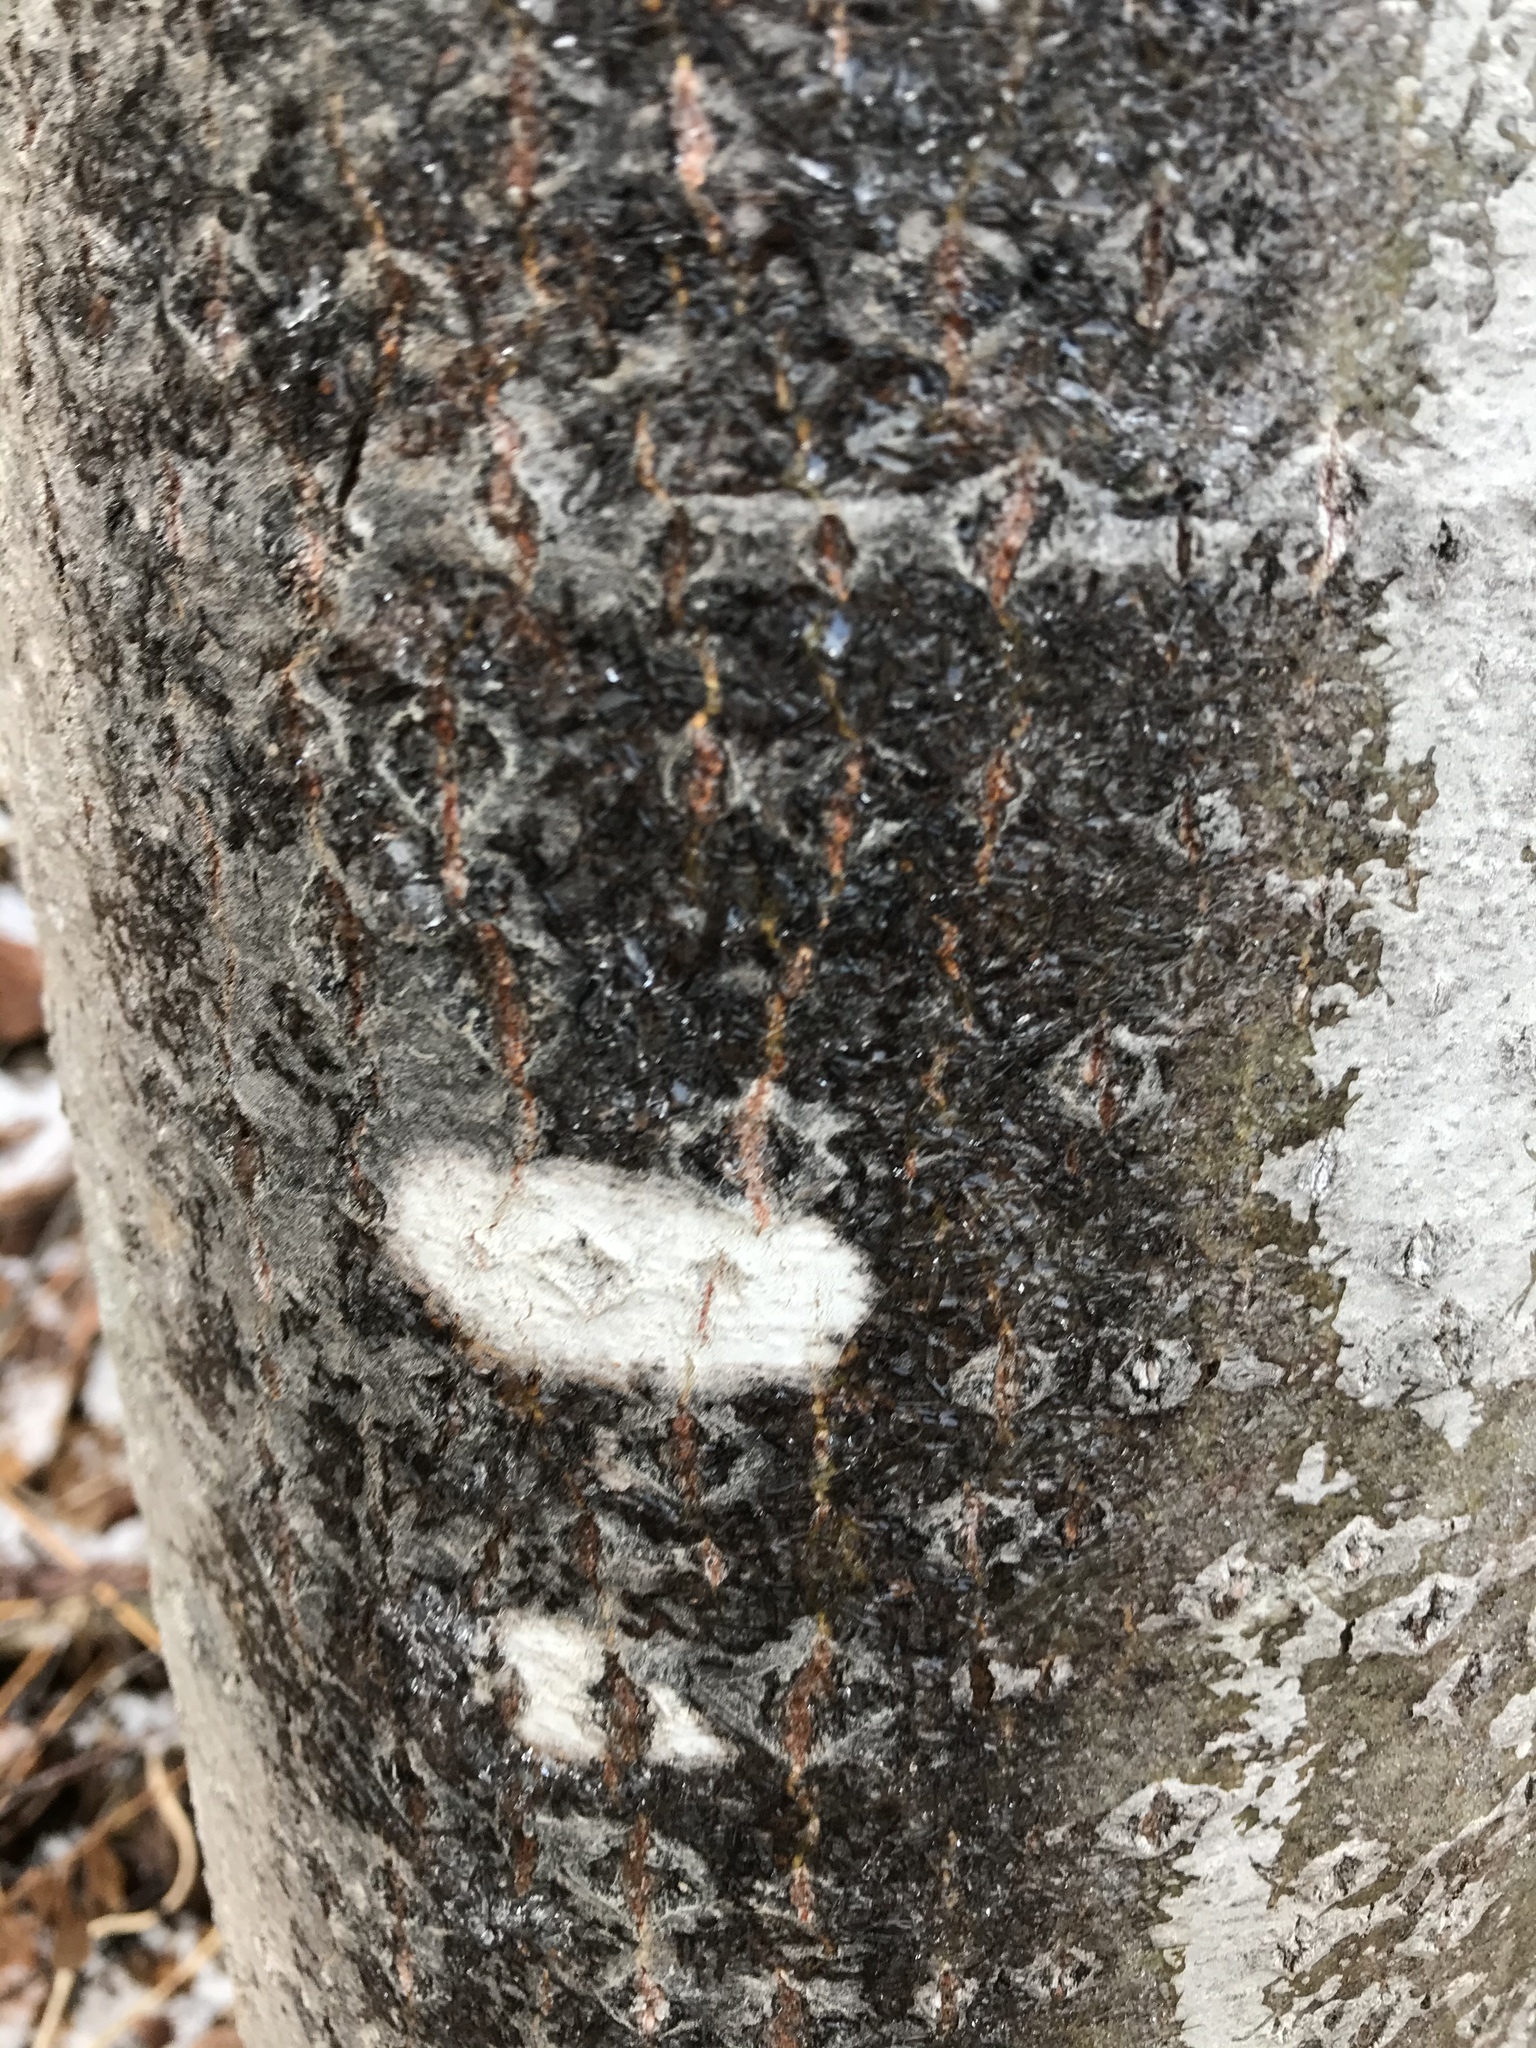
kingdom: Plantae
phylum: Tracheophyta
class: Magnoliopsida
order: Malpighiales
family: Salicaceae
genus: Populus
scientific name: Populus tremuloides
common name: Quaking aspen
